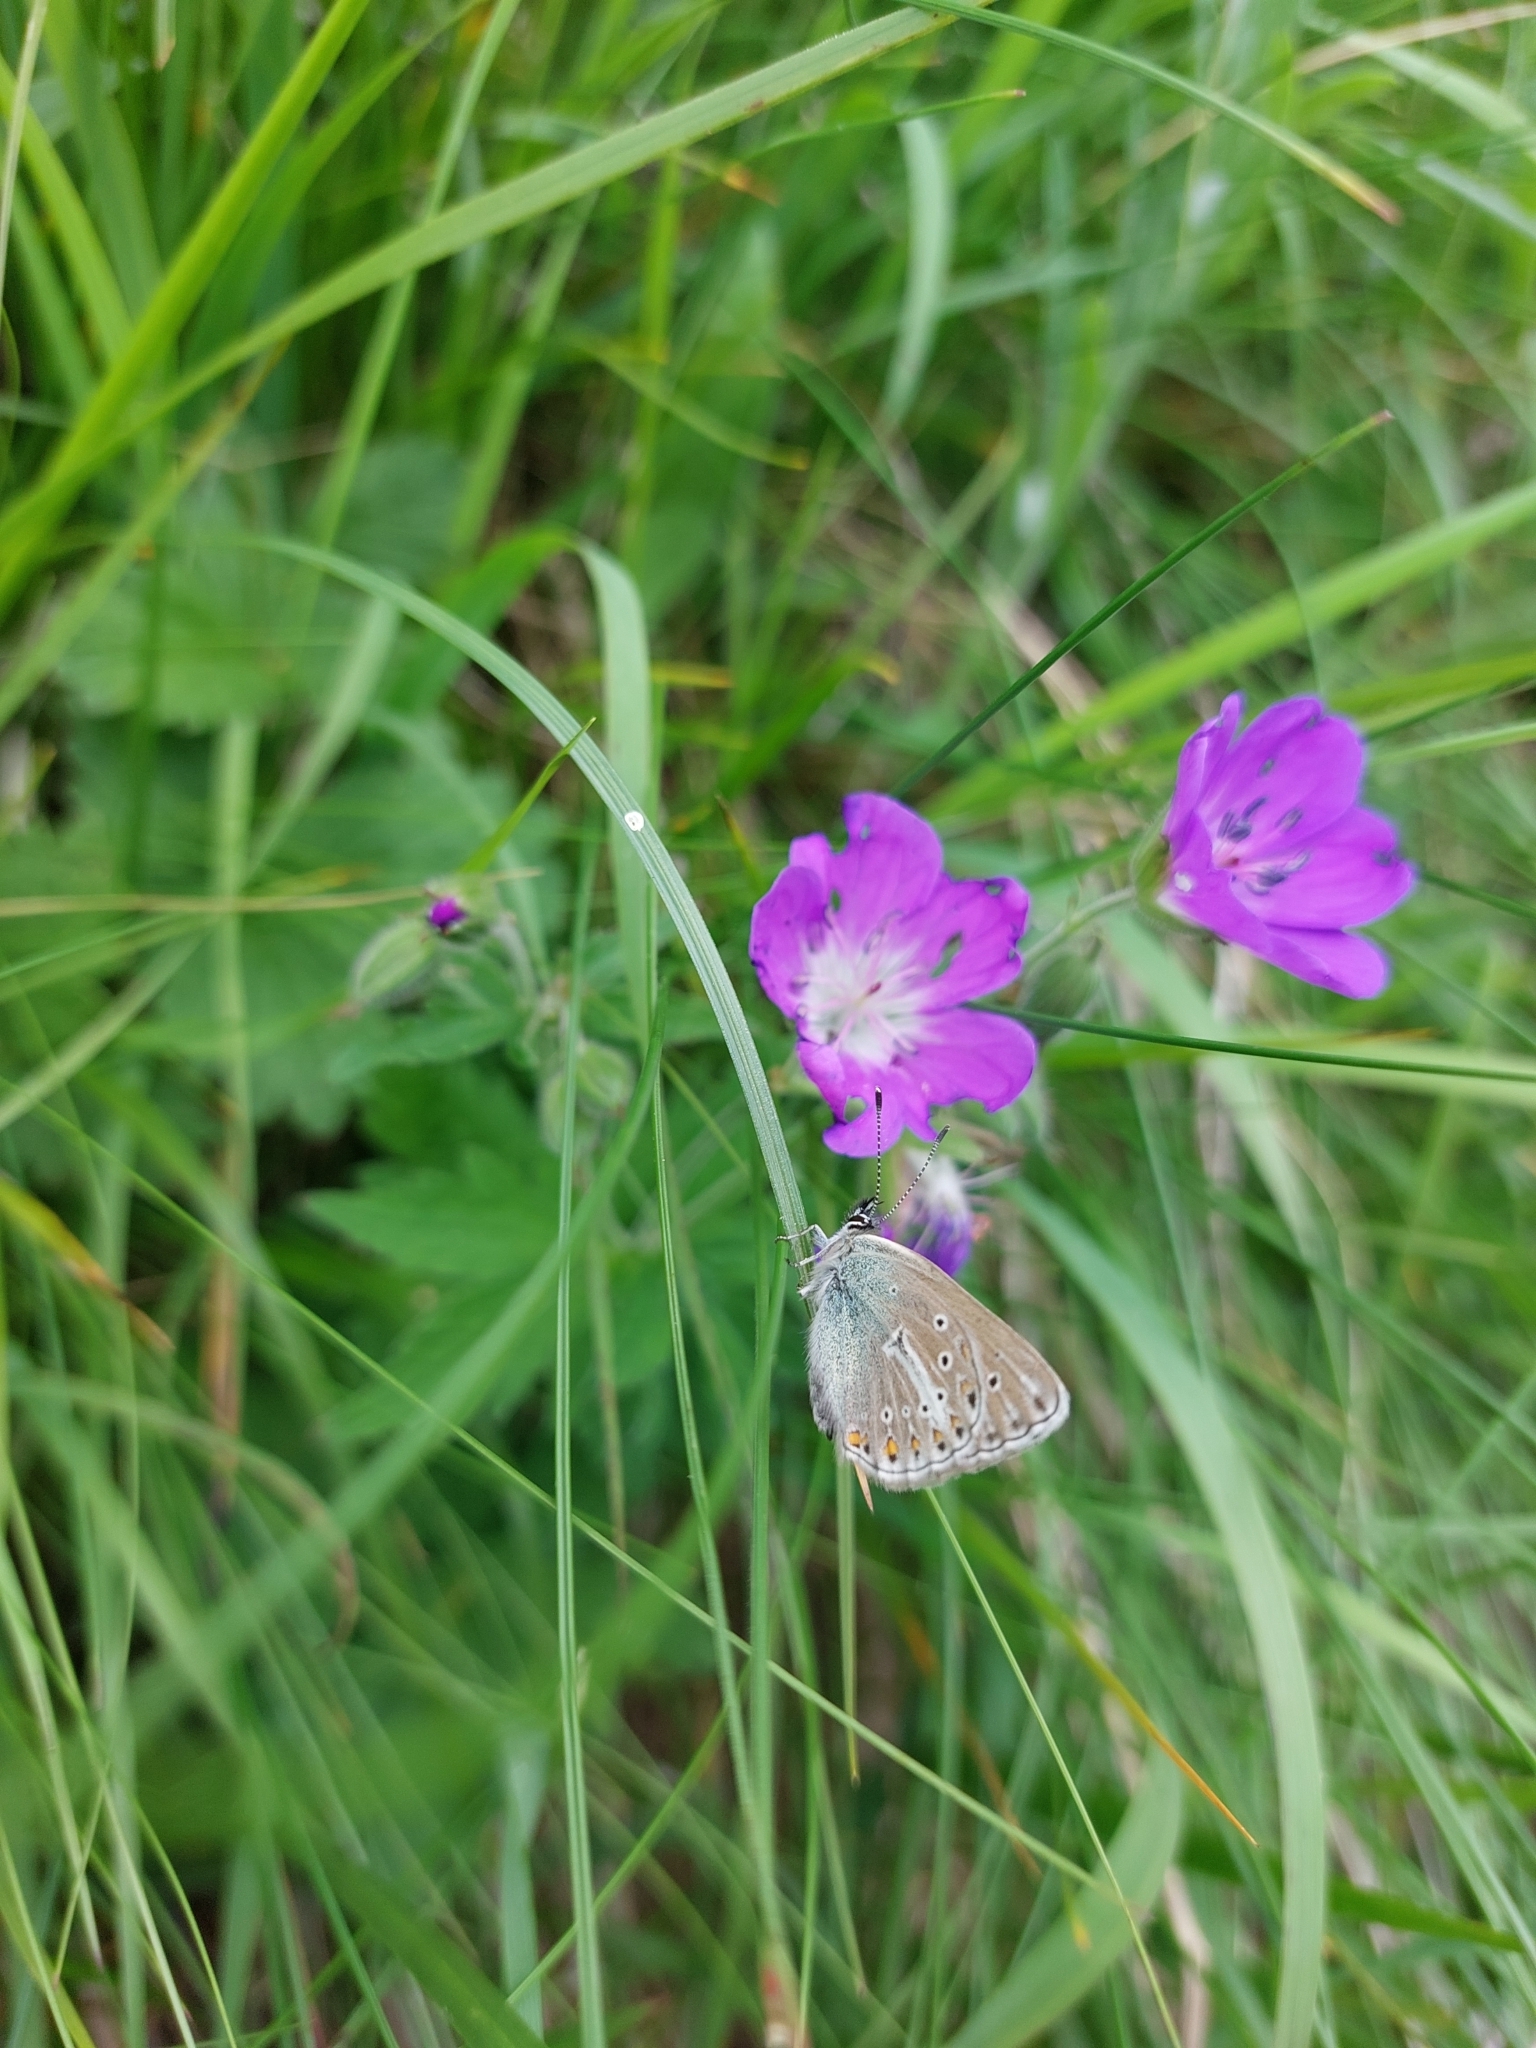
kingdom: Animalia
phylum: Arthropoda
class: Insecta
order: Lepidoptera
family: Lycaenidae
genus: Eumedonia
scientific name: Eumedonia eumedon
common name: Geranium argus
